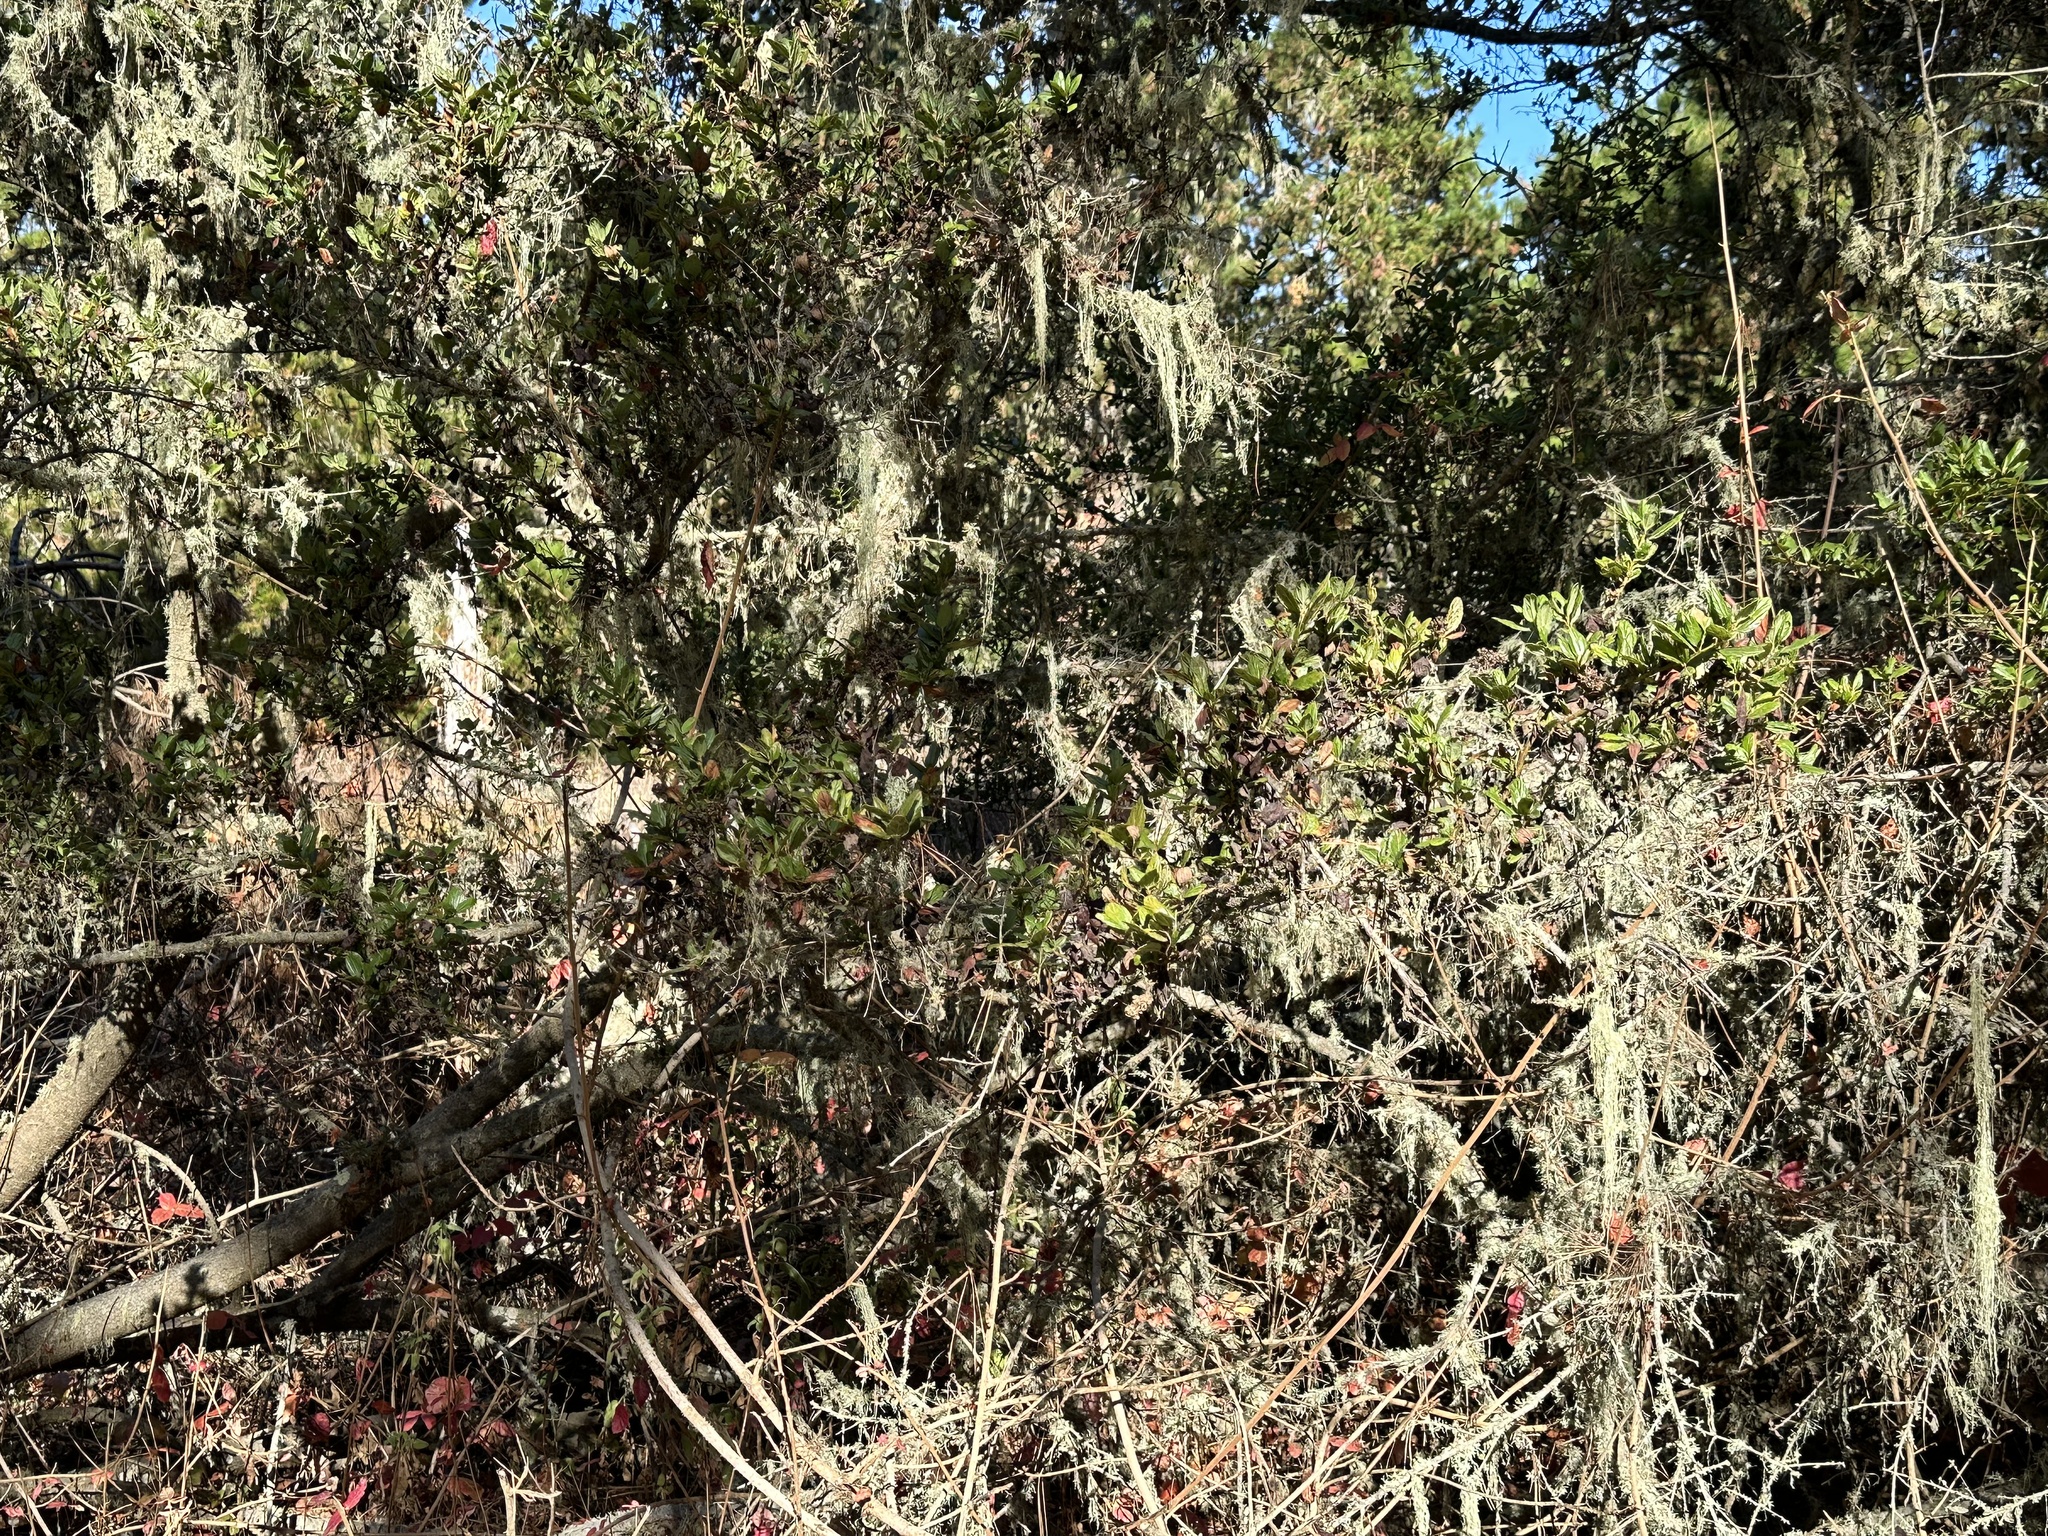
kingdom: Plantae
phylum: Tracheophyta
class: Magnoliopsida
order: Rosales
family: Rhamnaceae
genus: Ceanothus
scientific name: Ceanothus thyrsiflorus
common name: California-lilac
